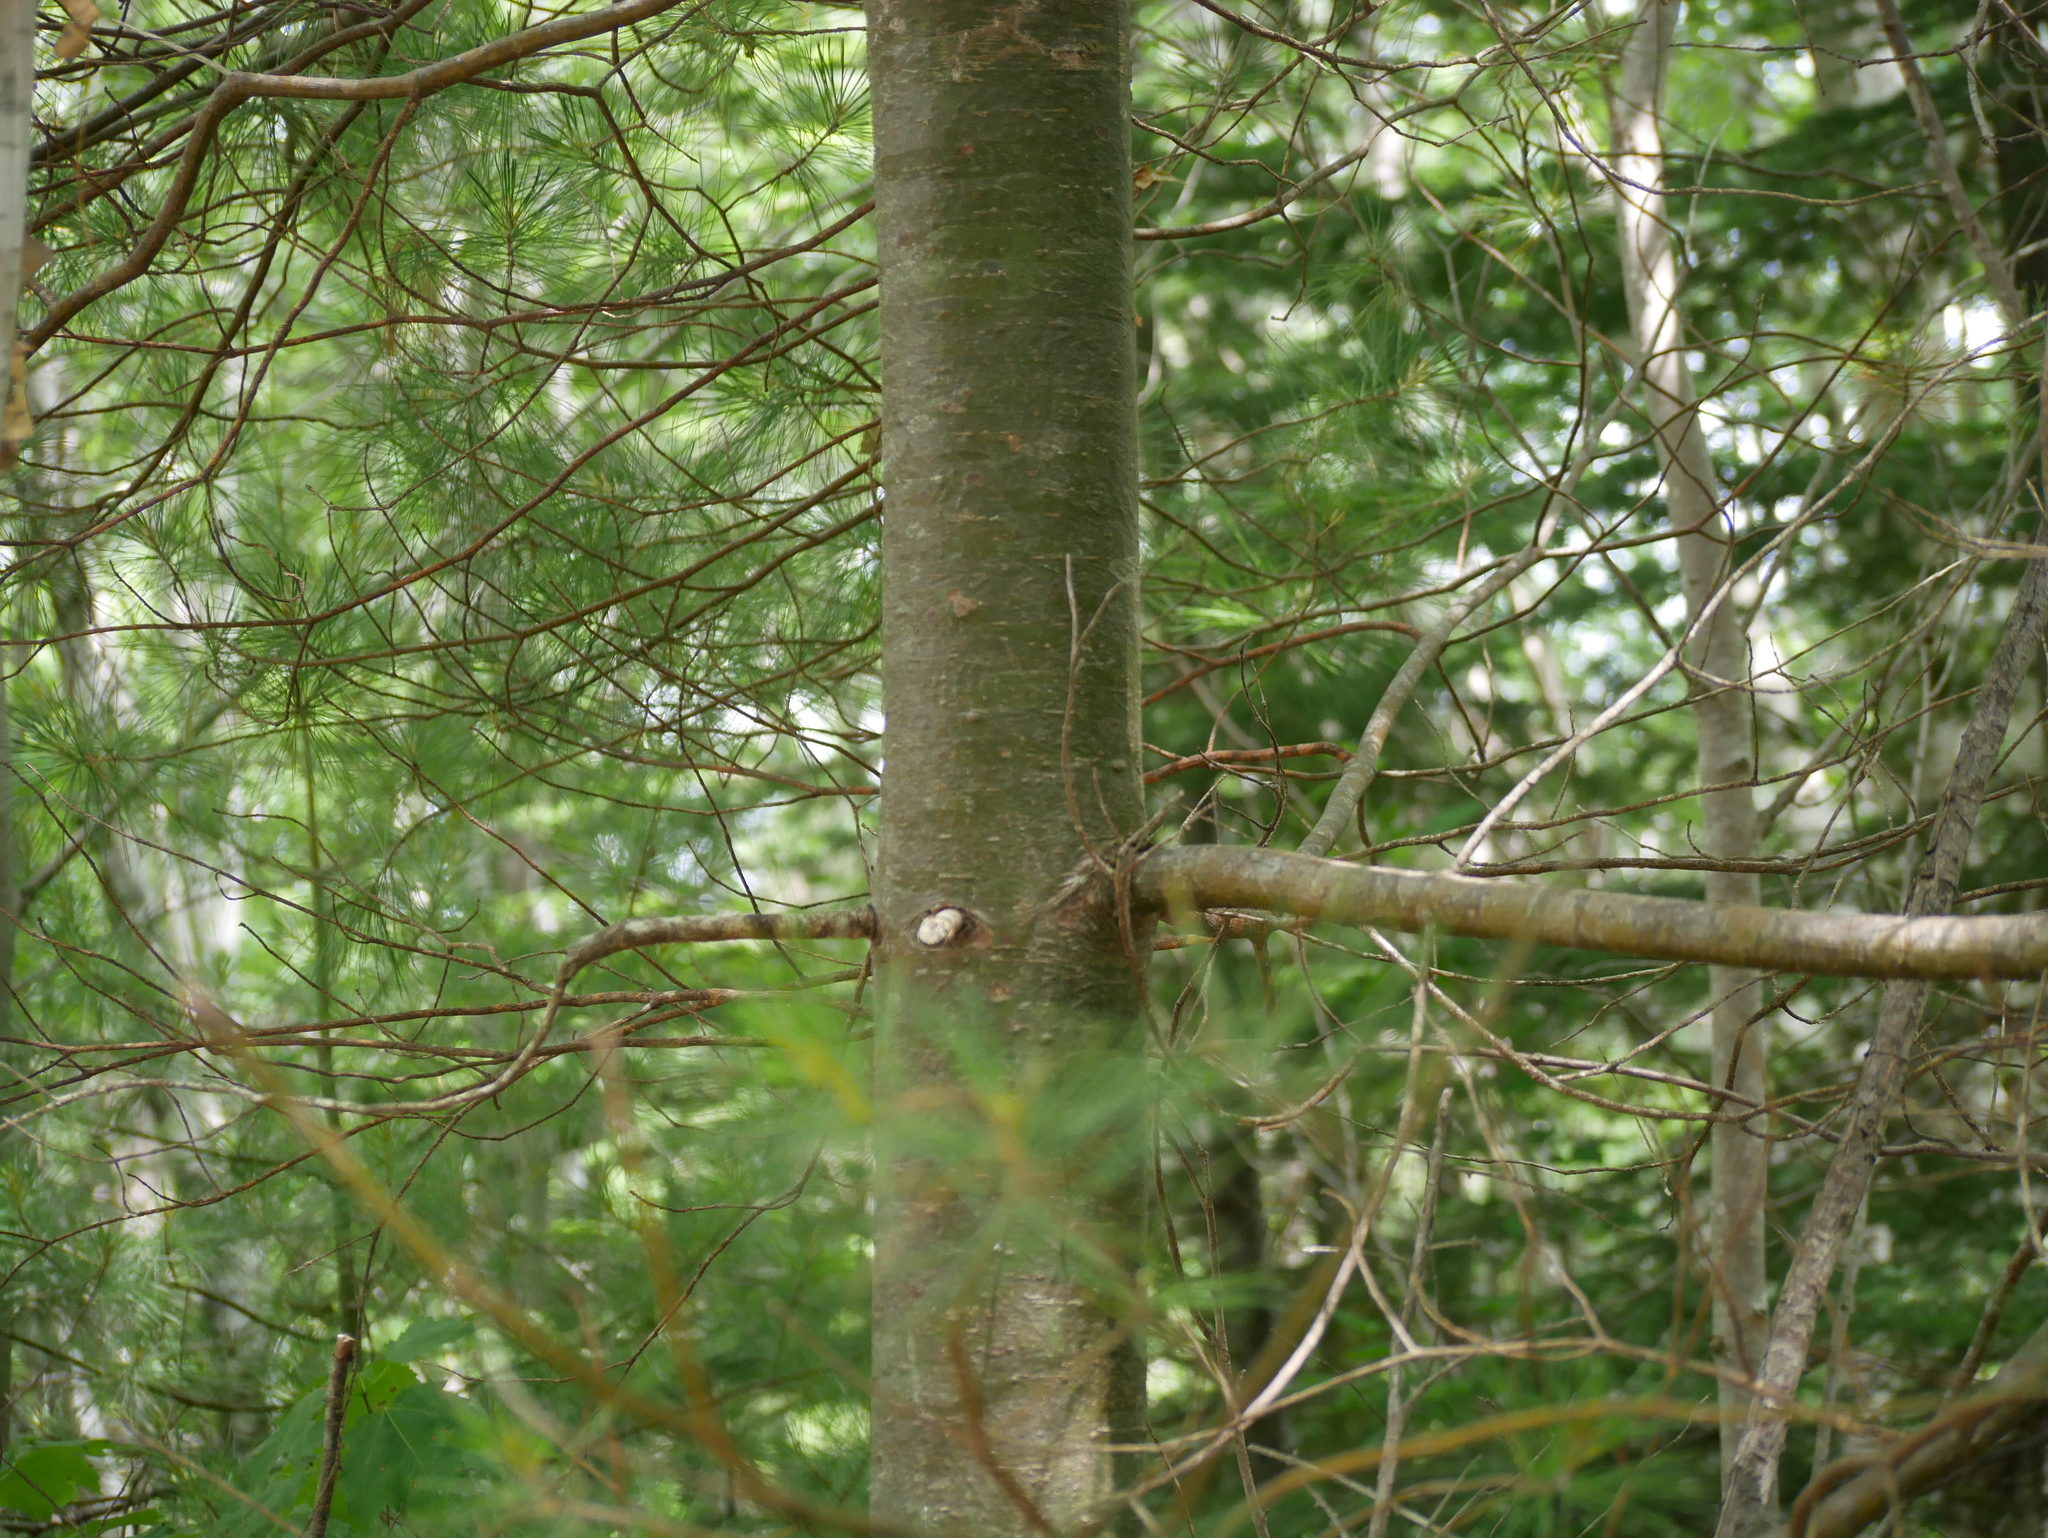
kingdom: Plantae
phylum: Tracheophyta
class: Pinopsida
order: Pinales
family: Pinaceae
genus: Pinus
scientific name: Pinus strobus
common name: Weymouth pine
